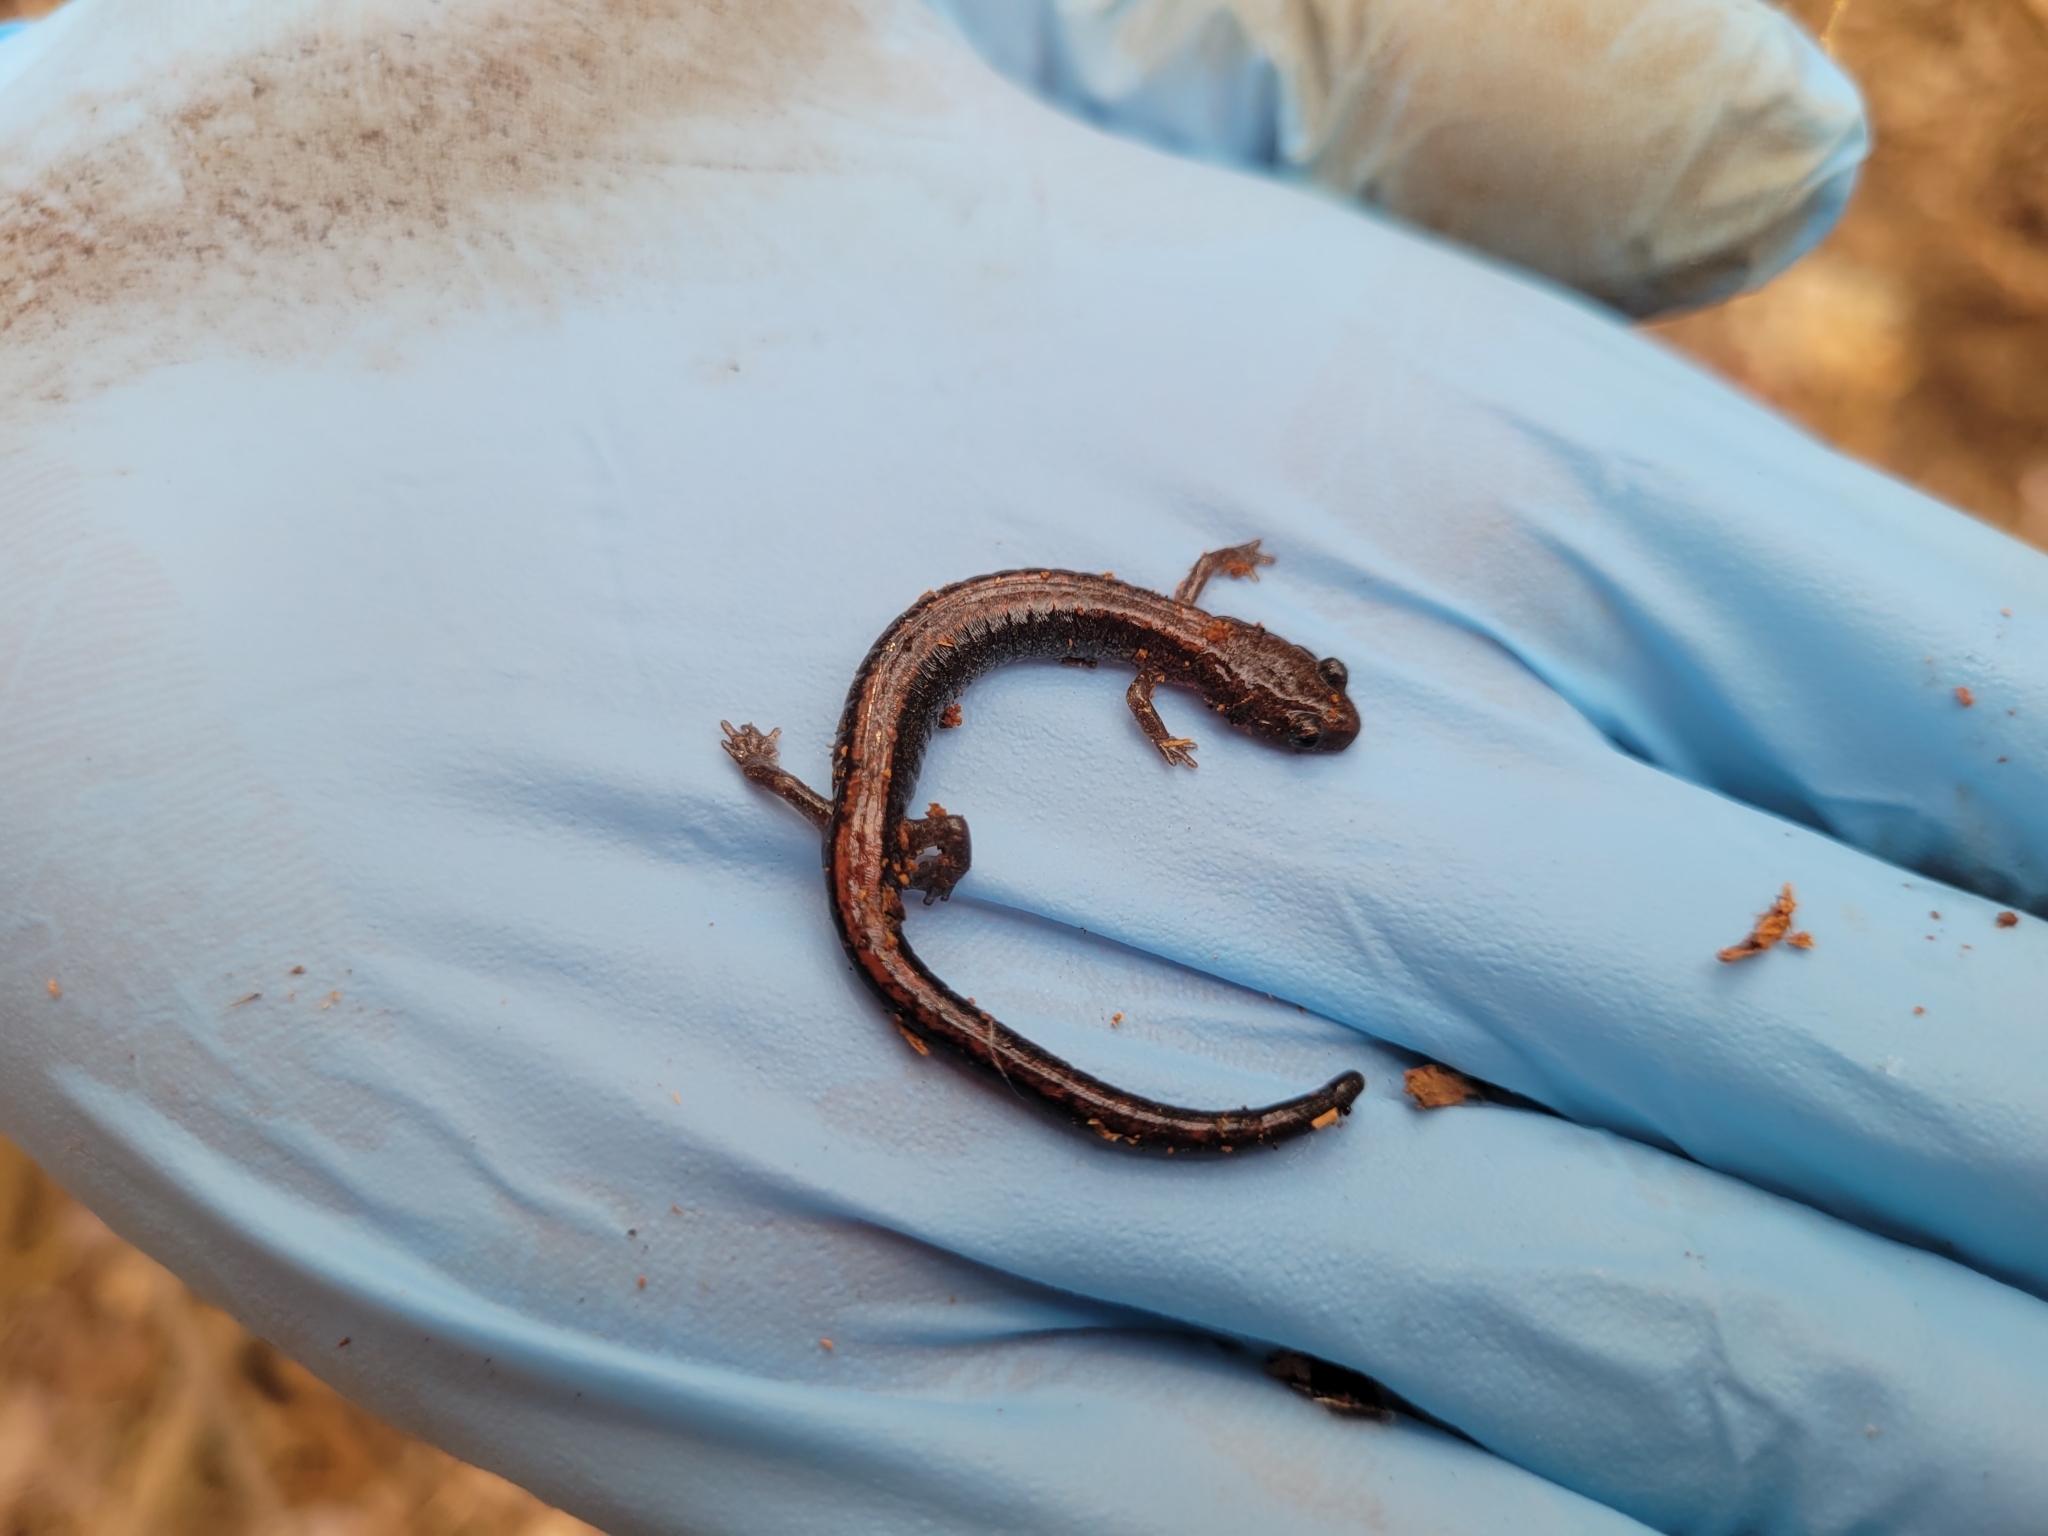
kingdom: Animalia
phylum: Chordata
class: Amphibia
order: Caudata
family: Plethodontidae
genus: Plethodon
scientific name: Plethodon cinereus
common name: Redback salamander
